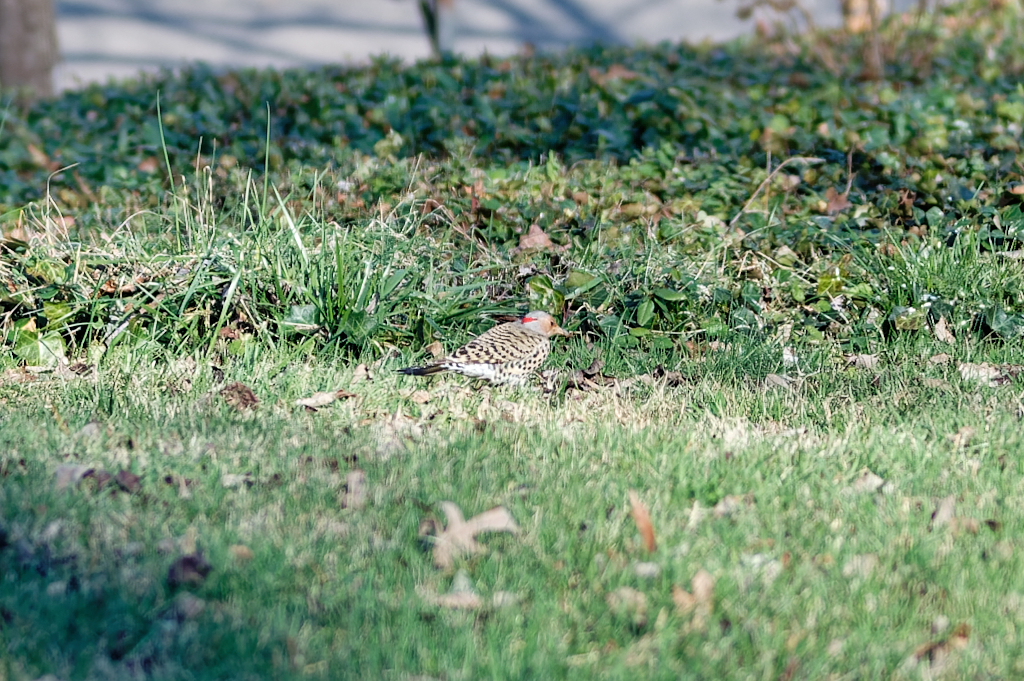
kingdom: Animalia
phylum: Chordata
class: Aves
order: Piciformes
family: Picidae
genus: Colaptes
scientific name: Colaptes auratus
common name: Northern flicker
